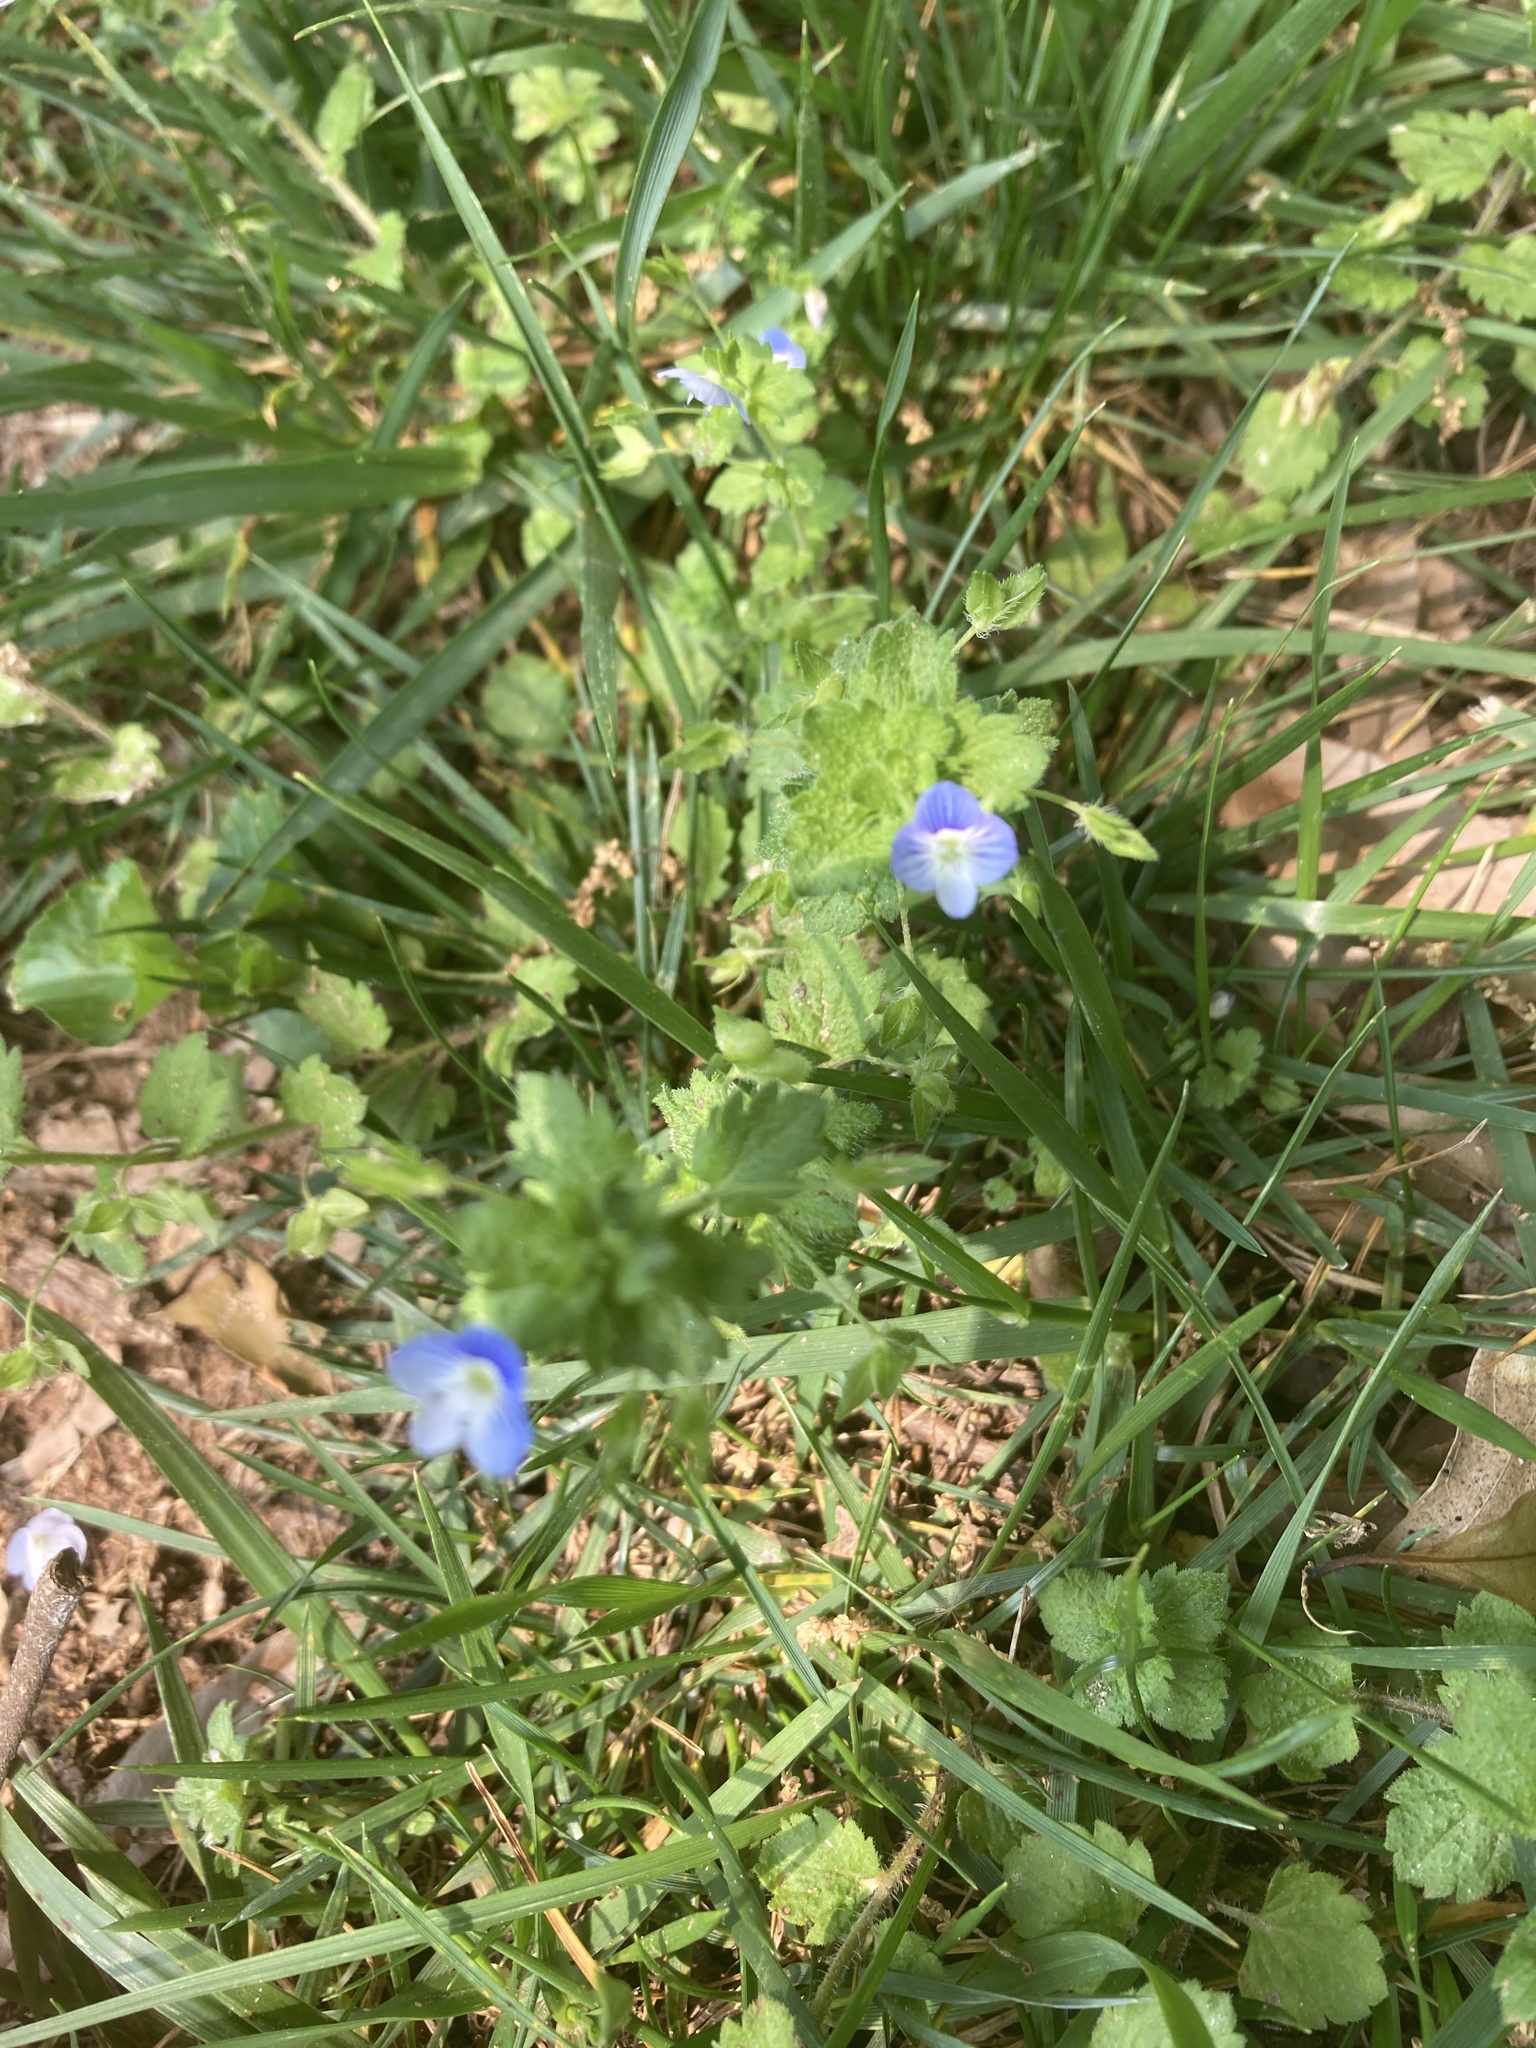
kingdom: Plantae
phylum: Tracheophyta
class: Magnoliopsida
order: Lamiales
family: Plantaginaceae
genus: Veronica
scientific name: Veronica persica
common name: Common field-speedwell
